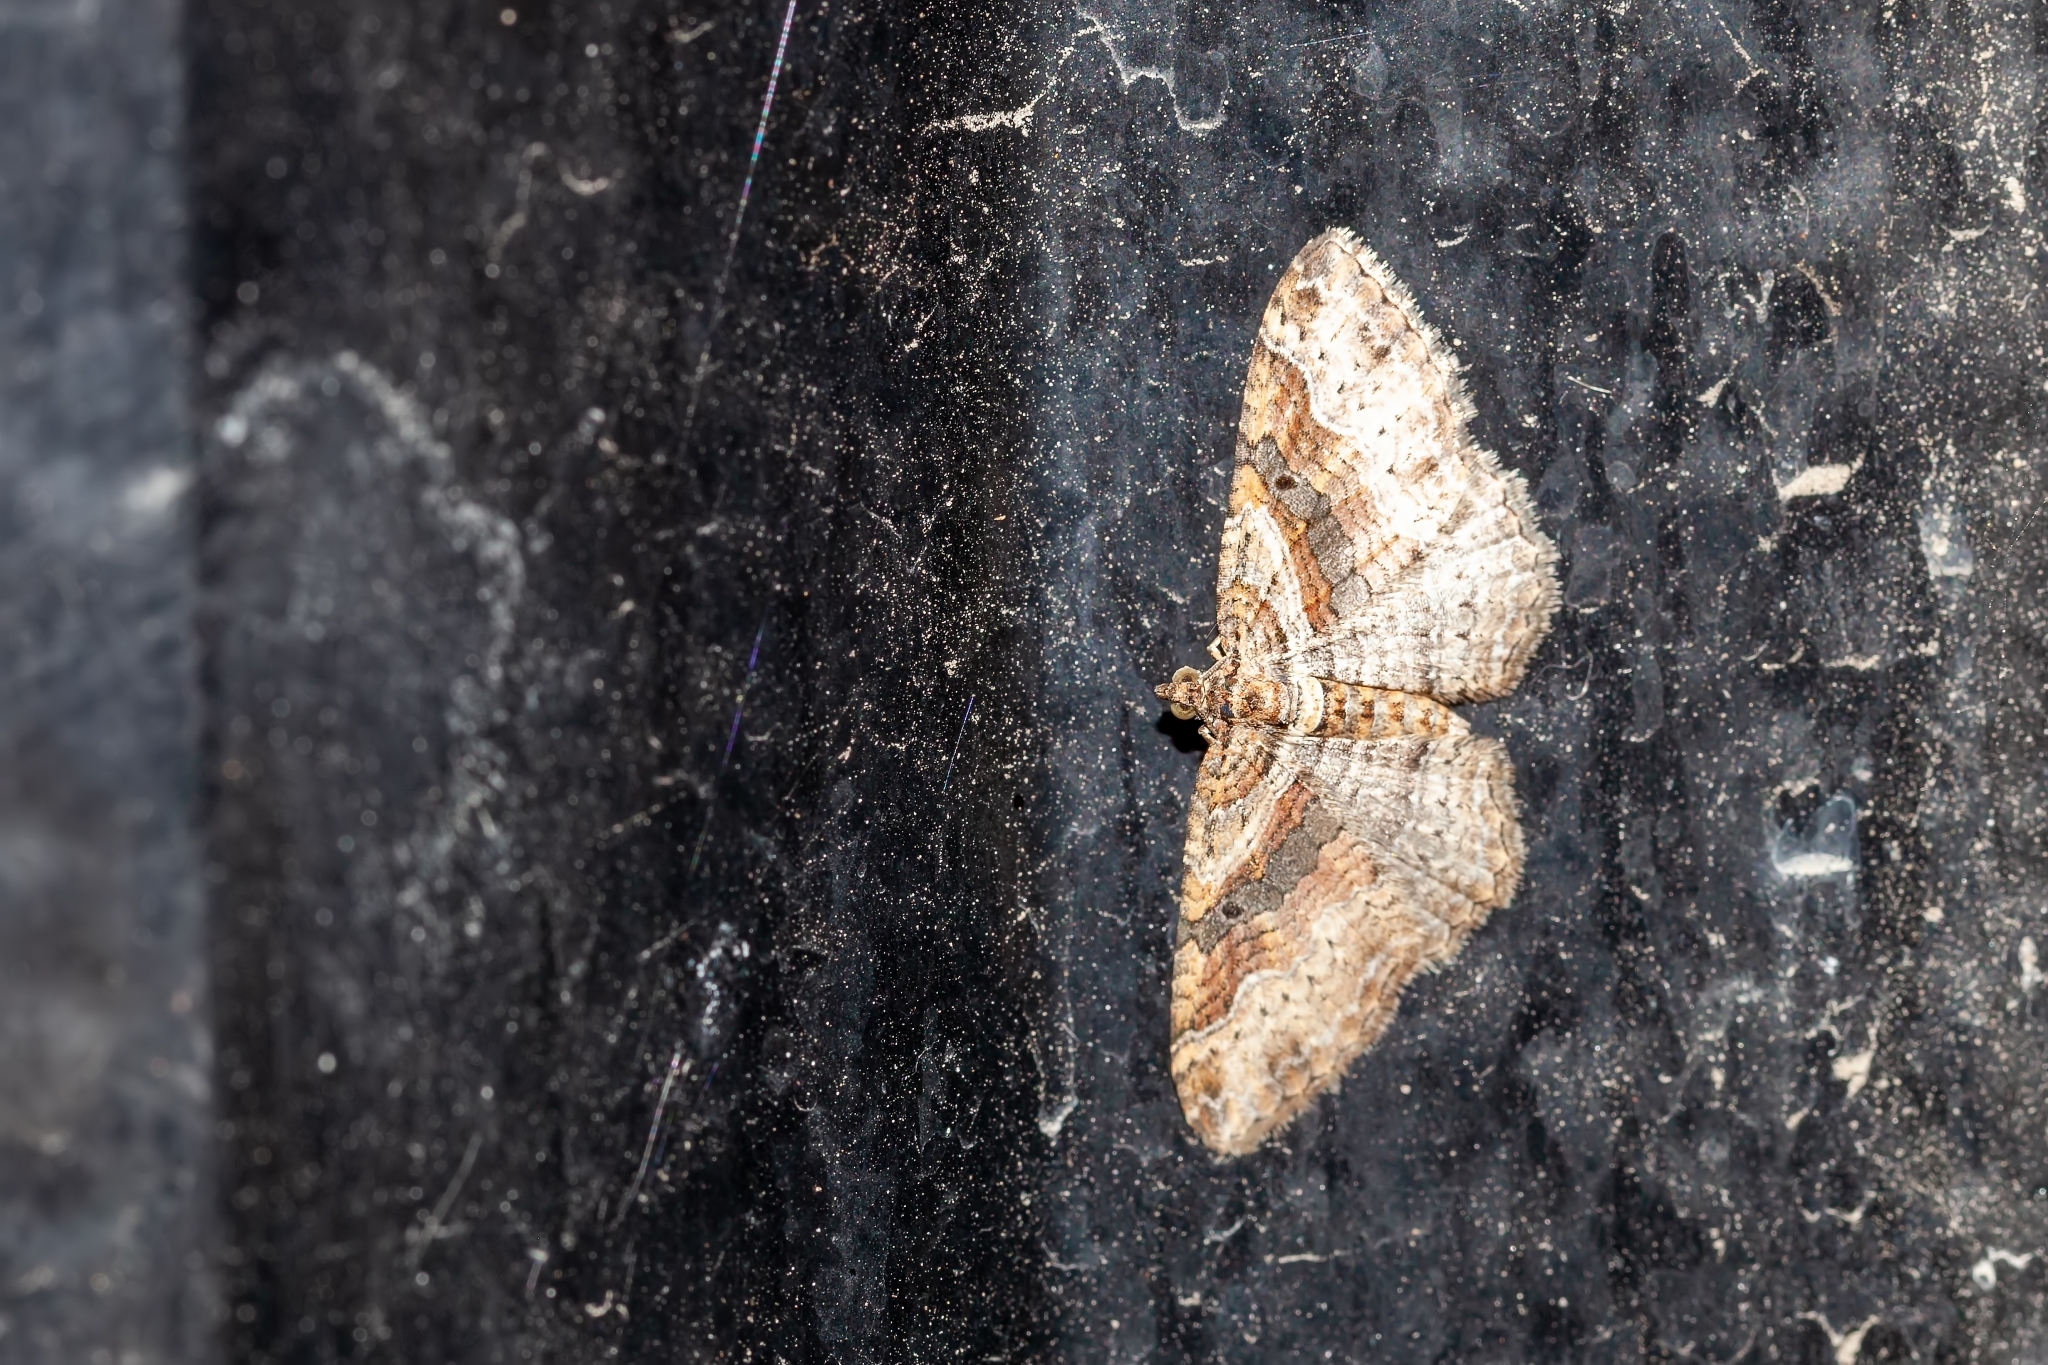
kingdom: Animalia
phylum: Arthropoda
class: Insecta
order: Lepidoptera
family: Geometridae
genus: Costaconvexa
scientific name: Costaconvexa centrostrigaria
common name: Bent-line carpet
